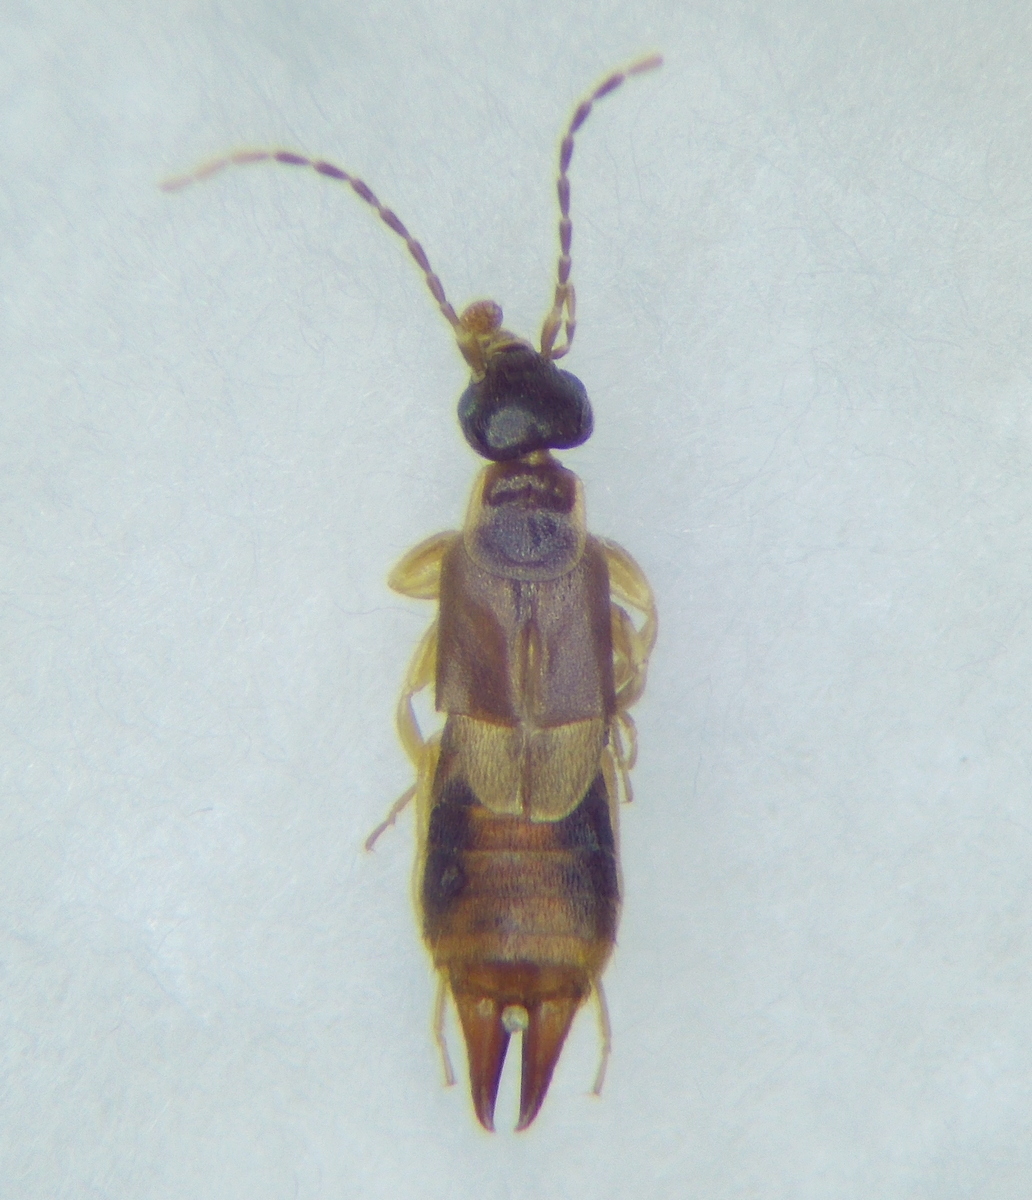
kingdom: Animalia
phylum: Arthropoda
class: Insecta
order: Dermaptera
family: Spongiphoridae
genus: Labia
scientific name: Labia minor
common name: Lesser earwig
